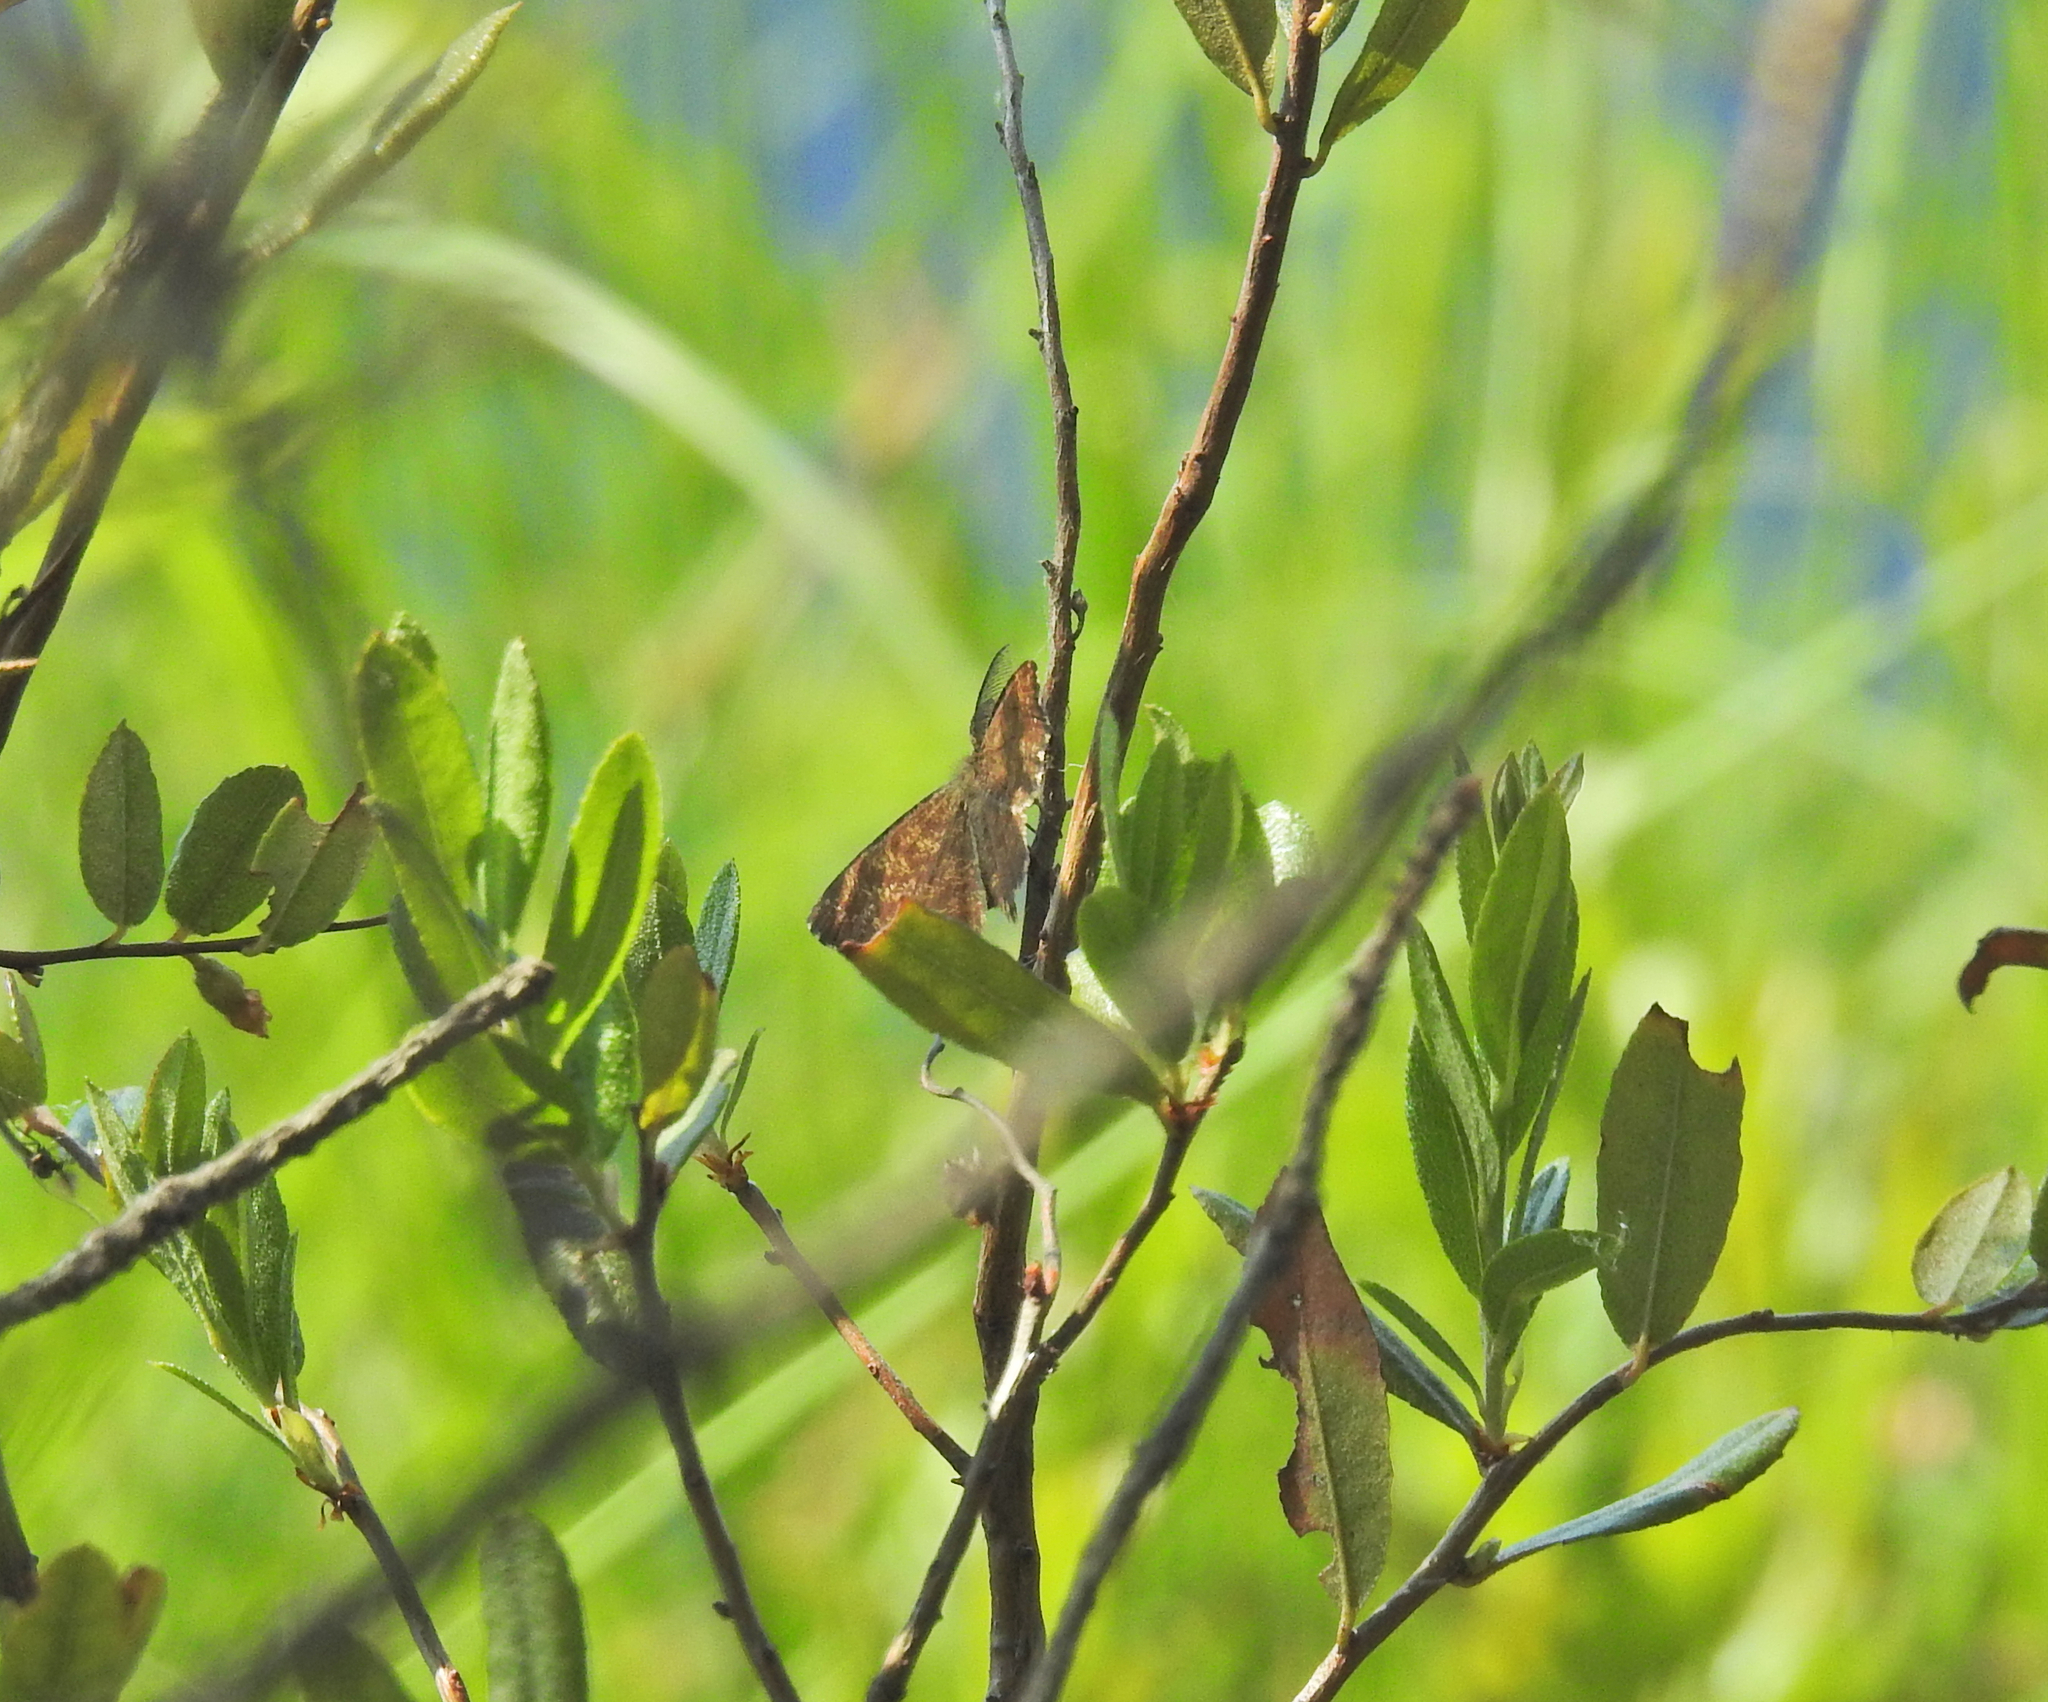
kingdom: Animalia
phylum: Arthropoda
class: Insecta
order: Lepidoptera
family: Geometridae
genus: Ematurga
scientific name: Ematurga atomaria
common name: Common heath
